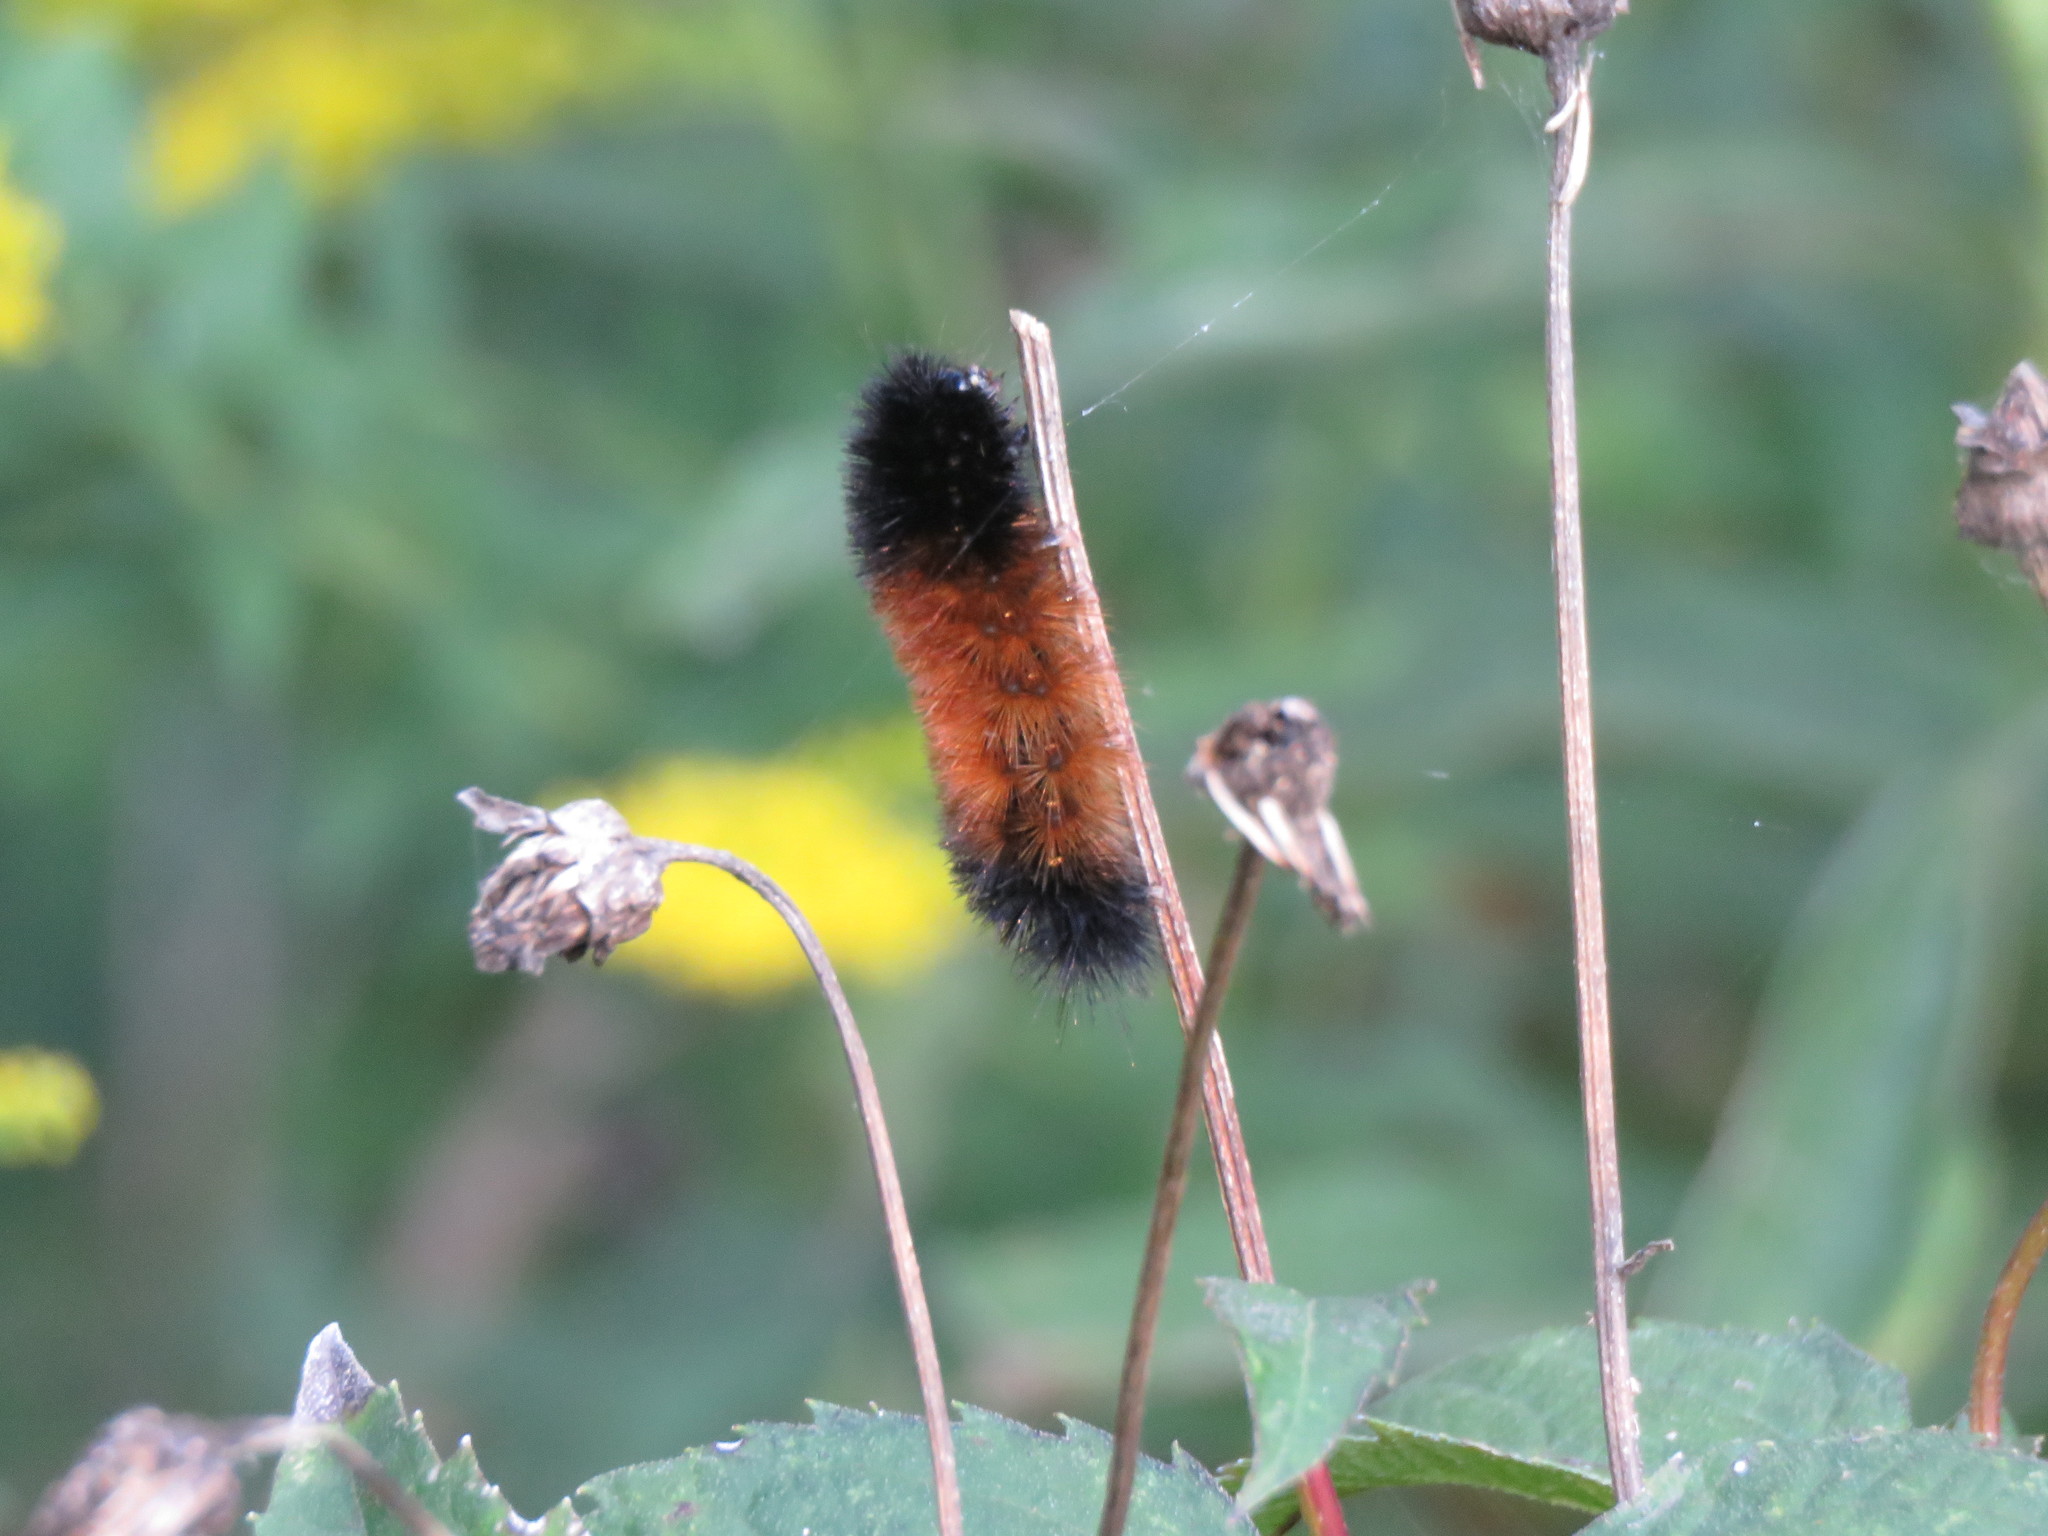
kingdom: Animalia
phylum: Arthropoda
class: Insecta
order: Lepidoptera
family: Erebidae
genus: Pyrrharctia
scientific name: Pyrrharctia isabella
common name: Isabella tiger moth
